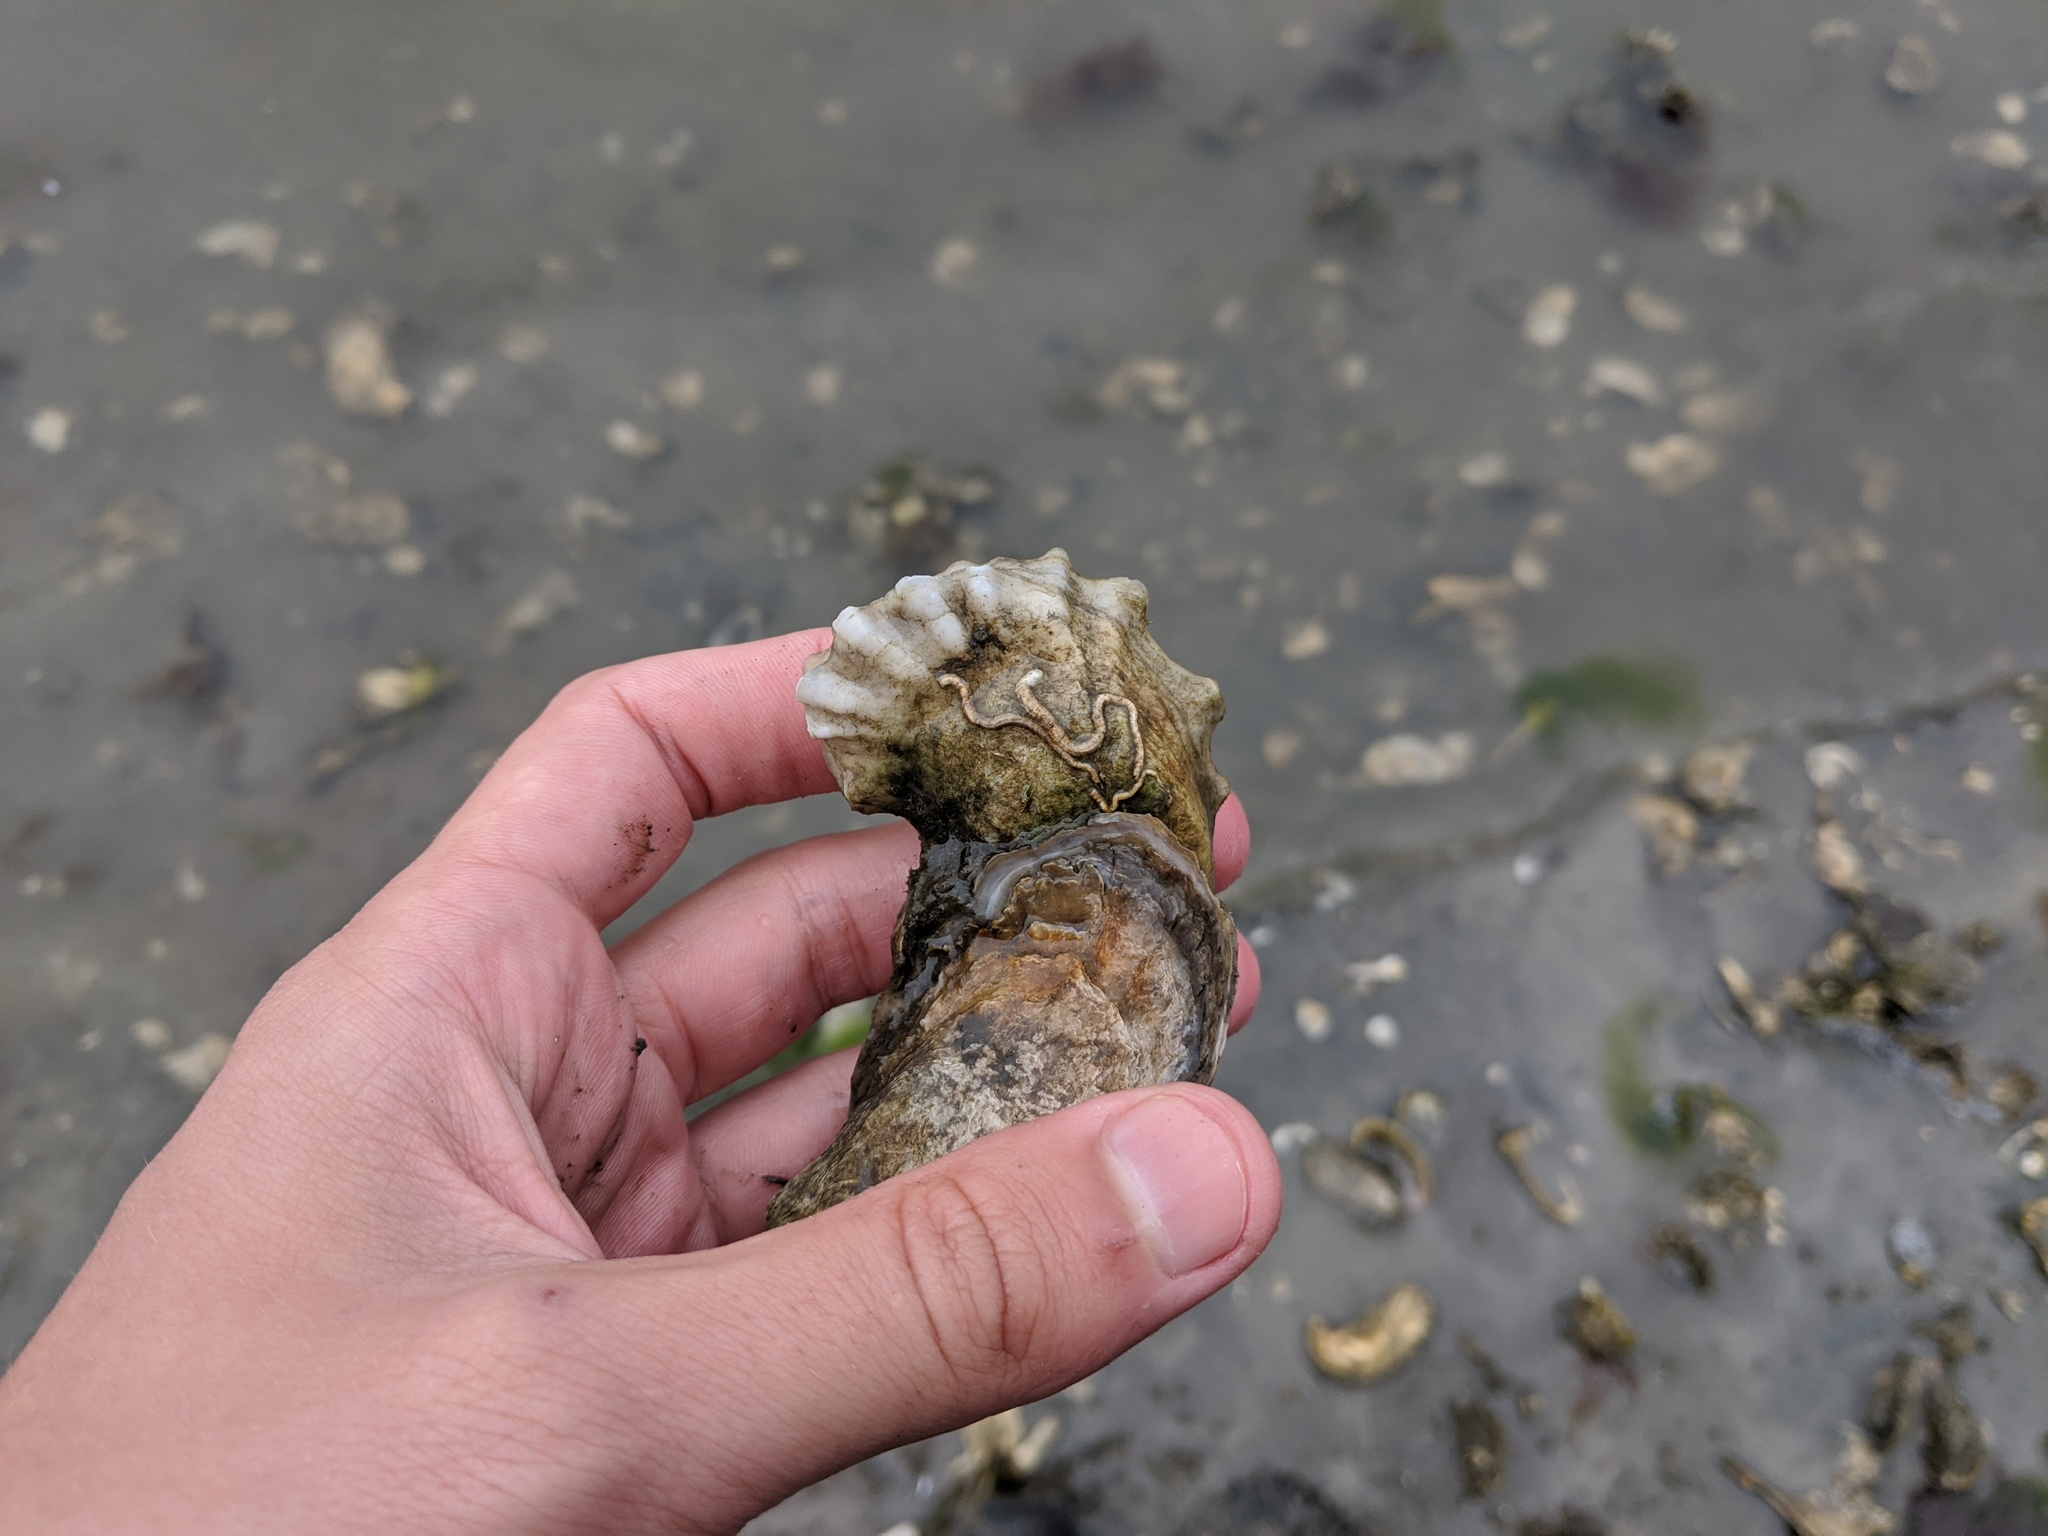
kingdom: Animalia
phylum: Mollusca
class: Bivalvia
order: Ostreida
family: Ostreidae
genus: Crassostrea
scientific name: Crassostrea virginica
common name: American oyster
